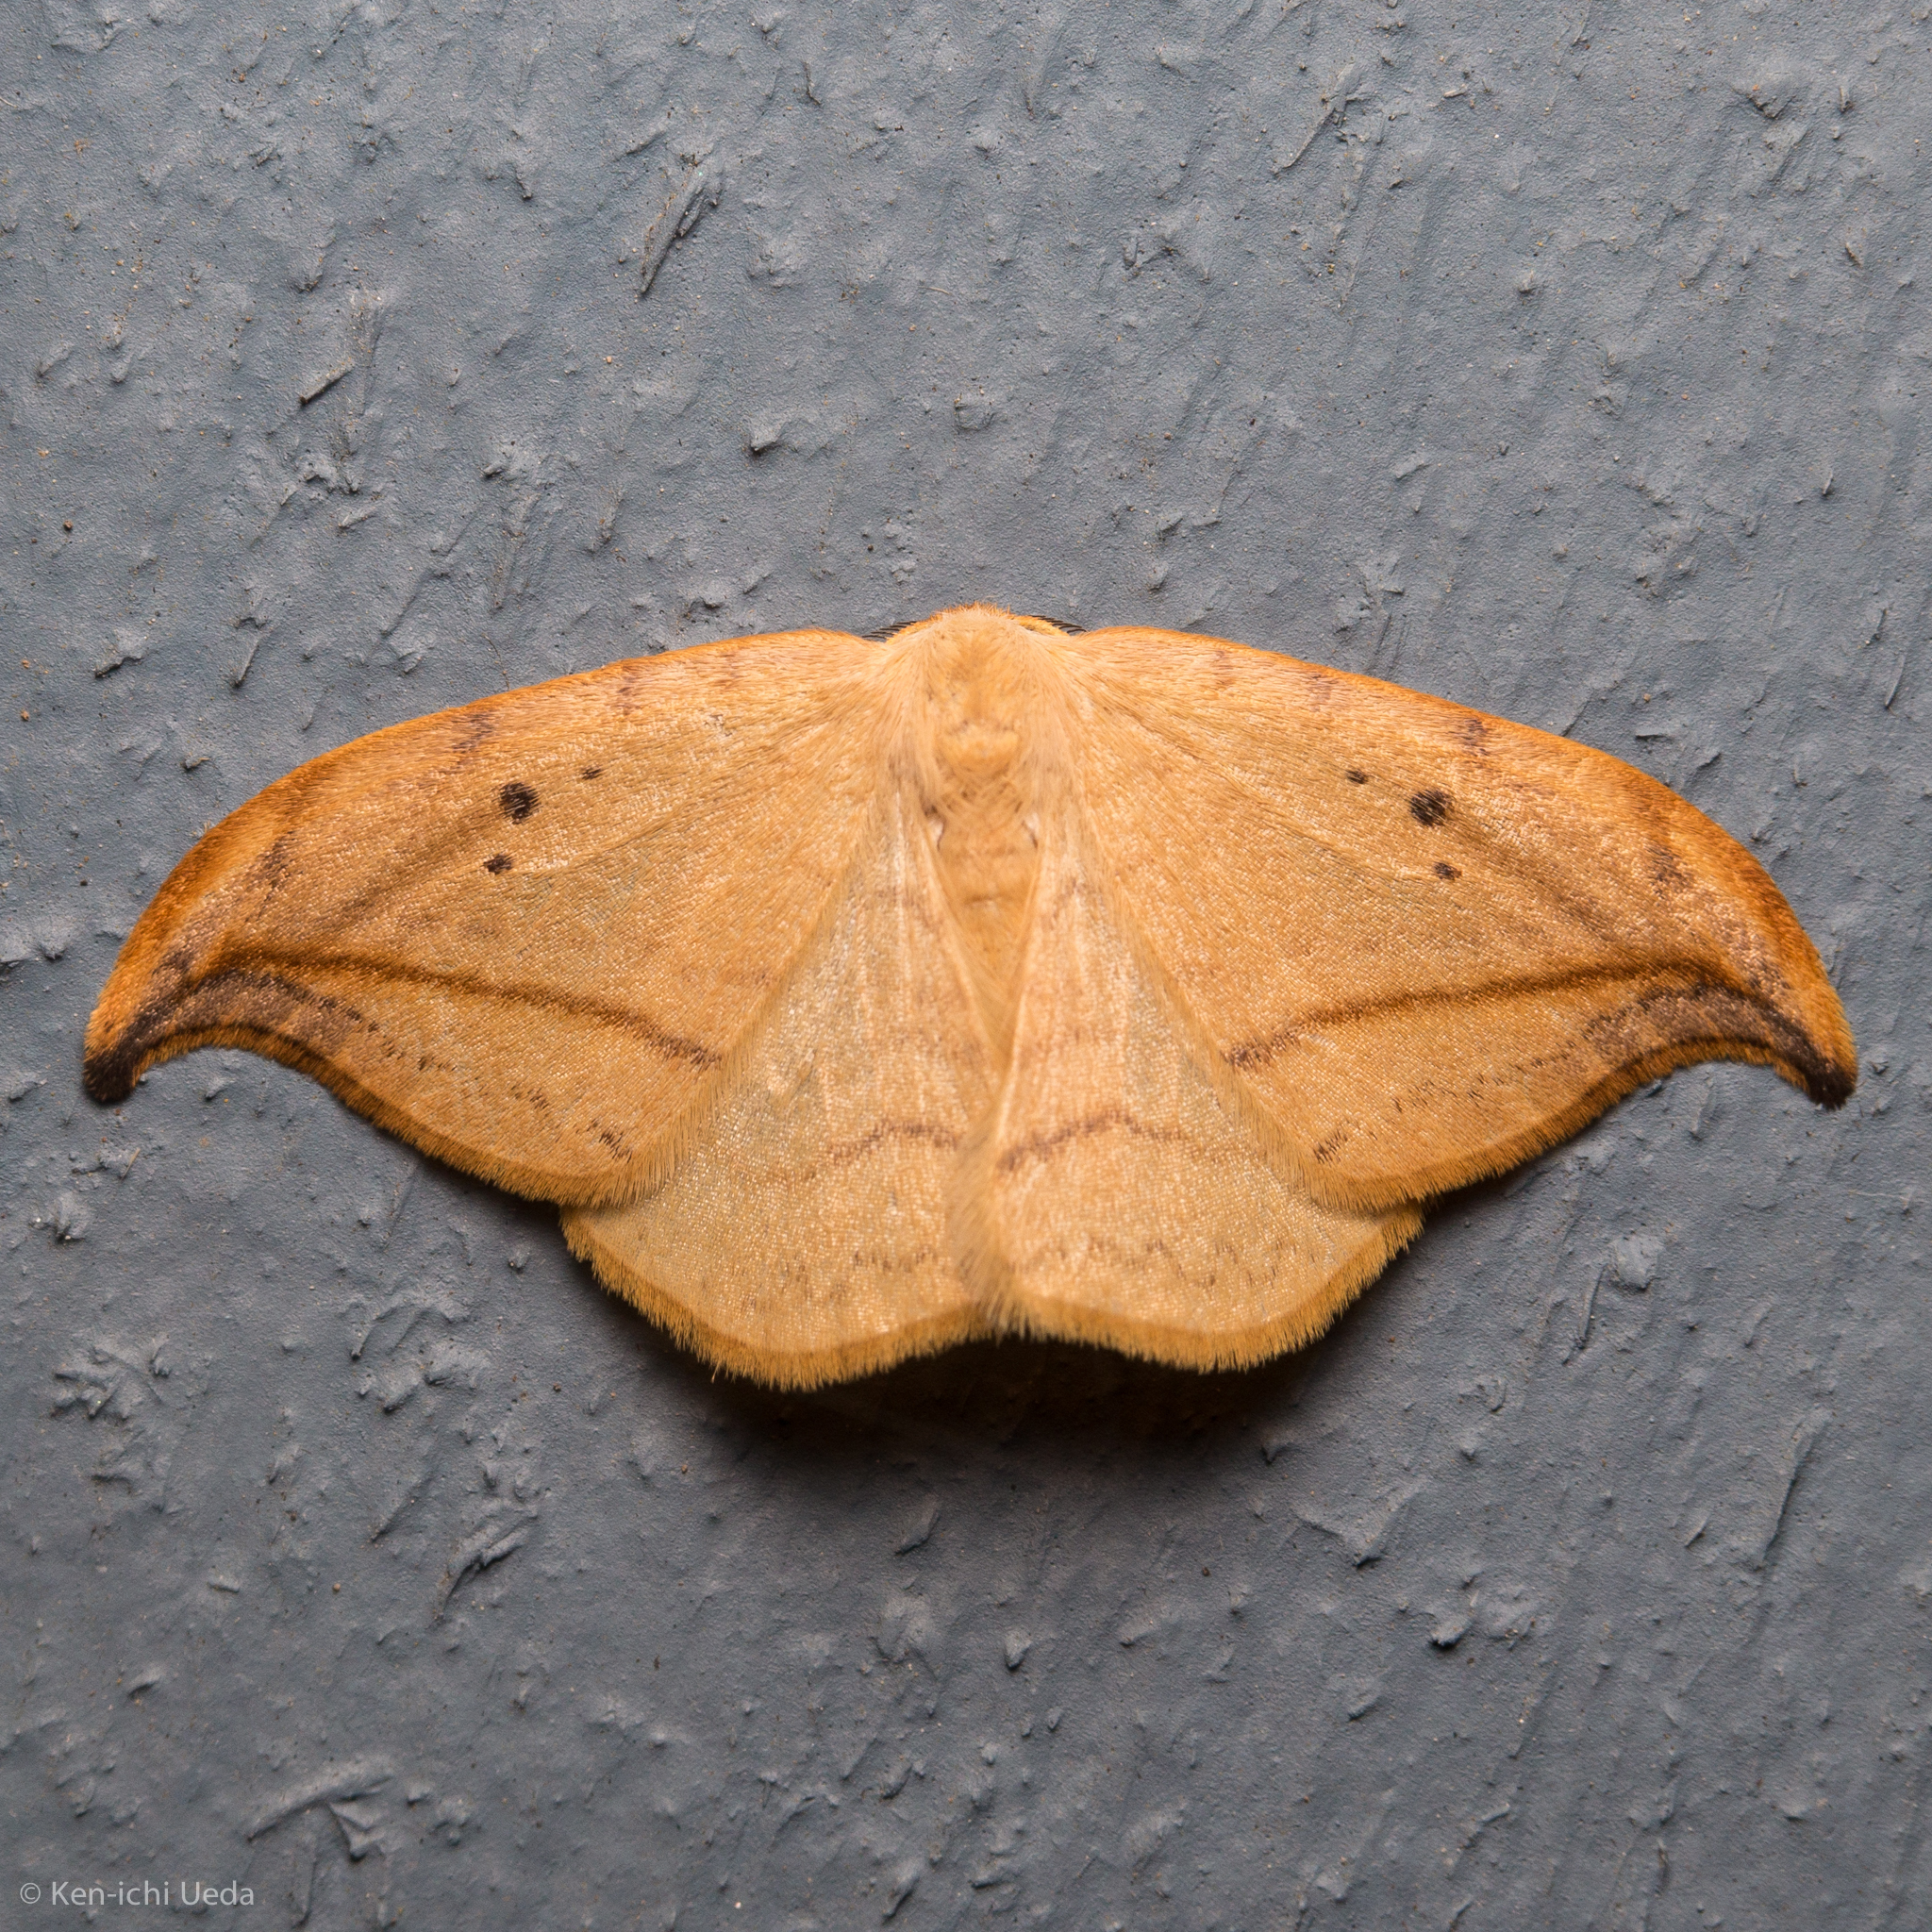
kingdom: Animalia
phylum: Arthropoda
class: Insecta
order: Lepidoptera
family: Drepanidae
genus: Drepana
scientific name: Drepana arcuata
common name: Arched hooktip moth
